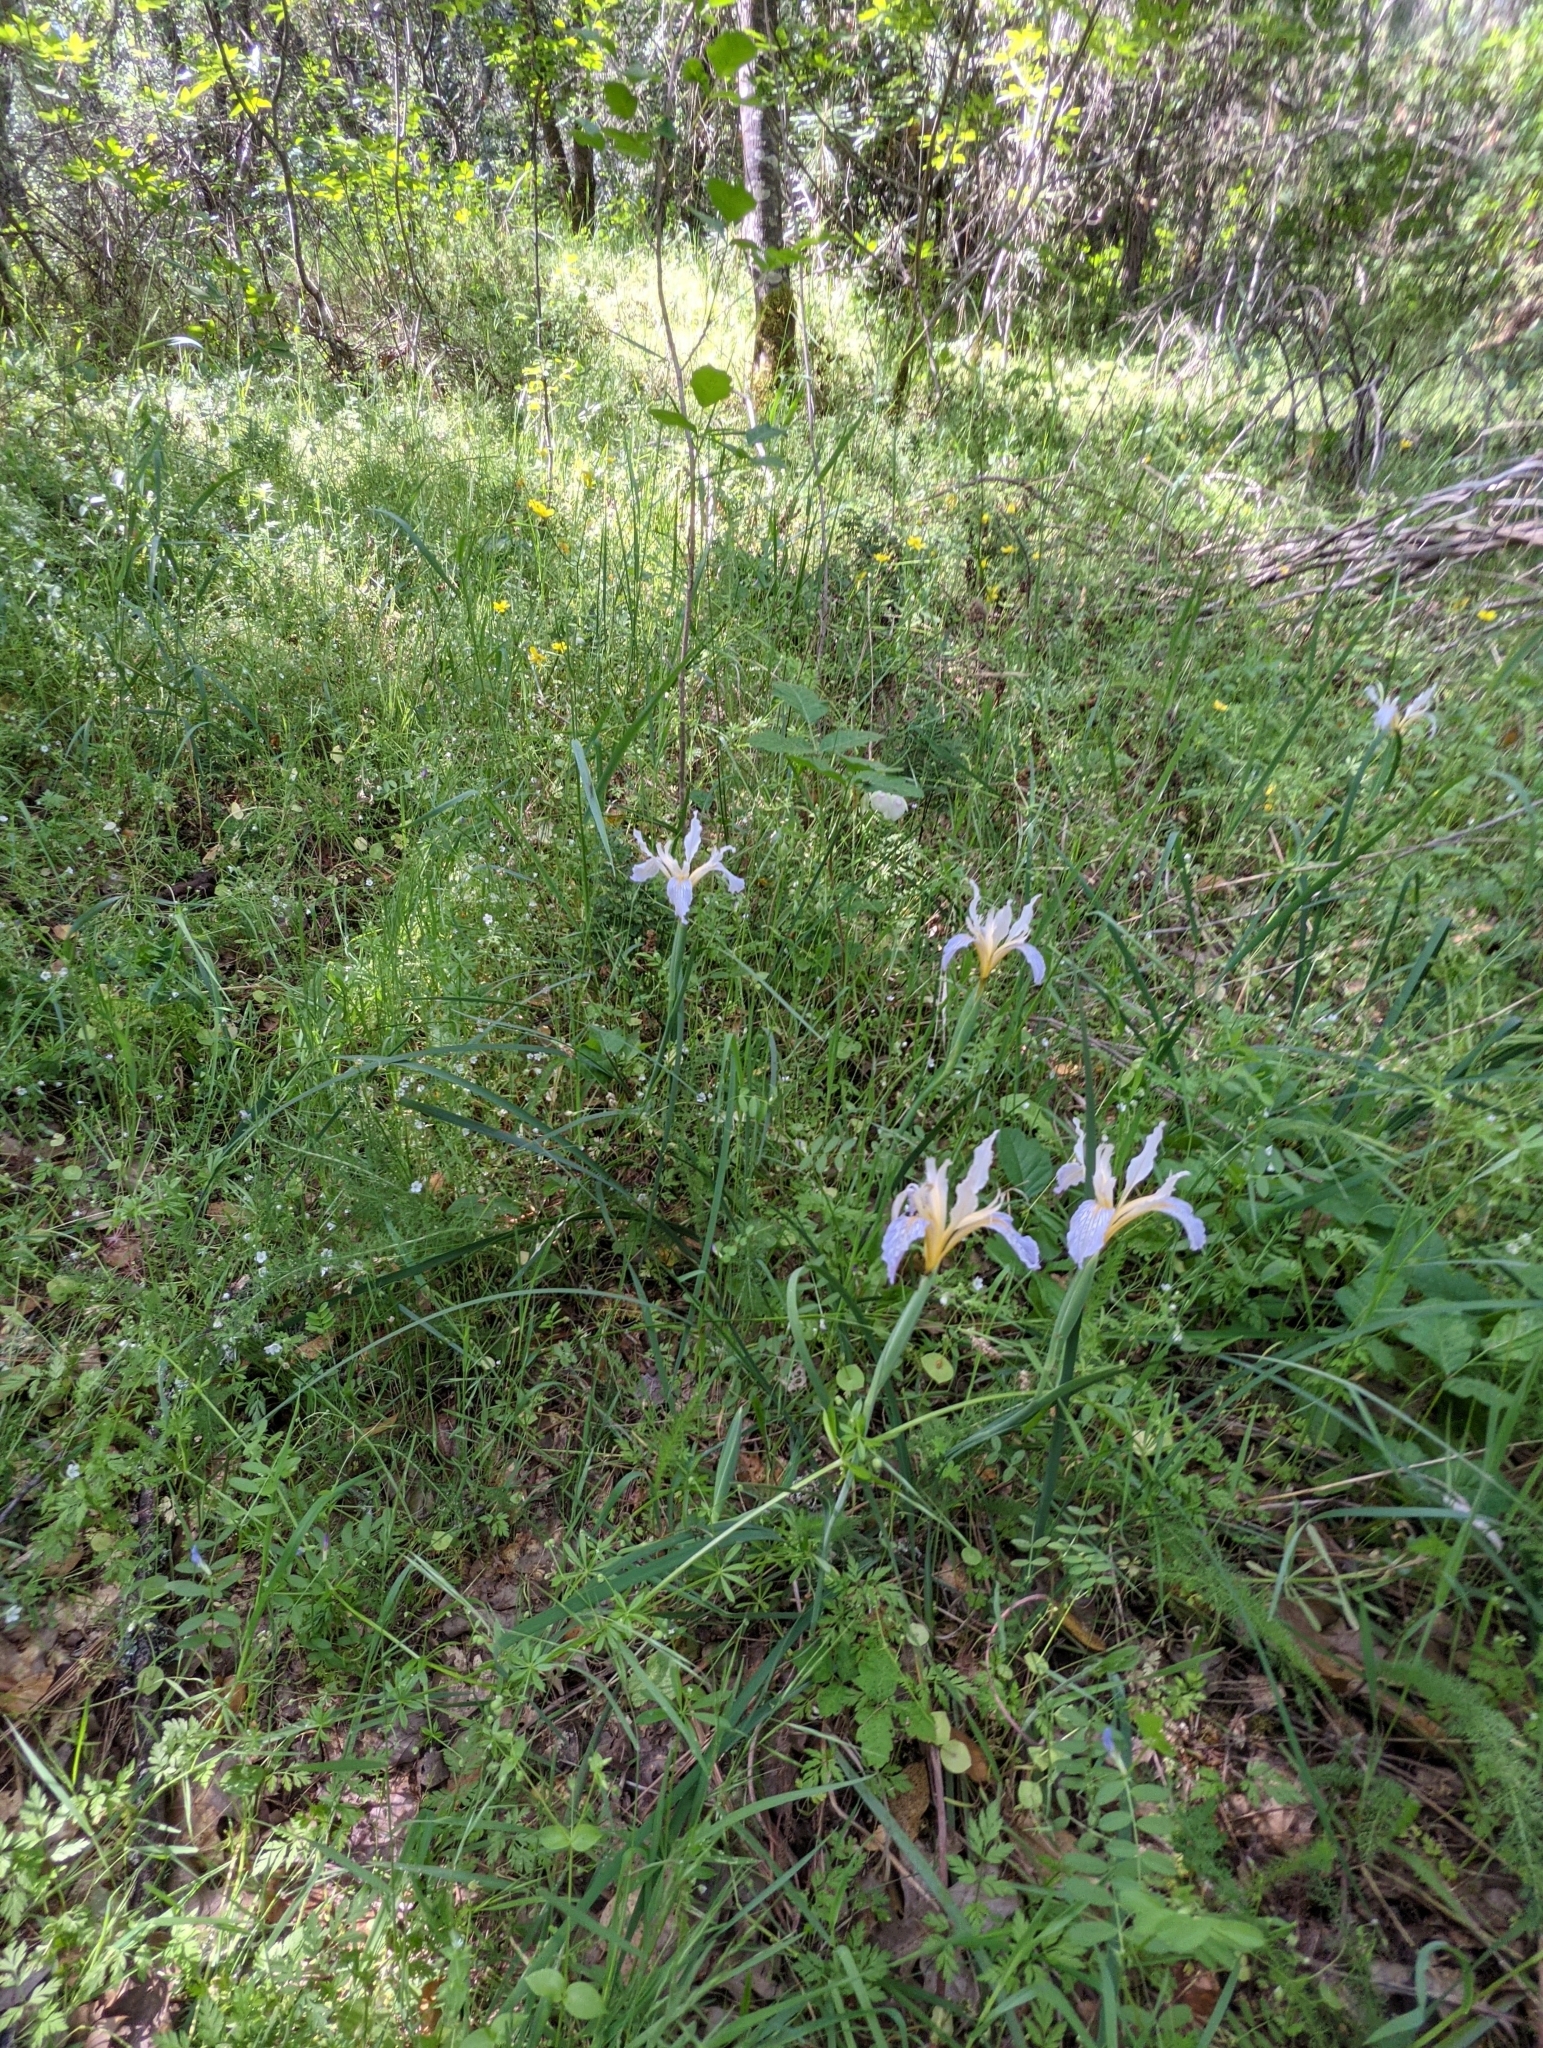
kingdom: Plantae
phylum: Tracheophyta
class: Liliopsida
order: Asparagales
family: Iridaceae
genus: Iris
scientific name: Iris macrosiphon
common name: Ground iris
